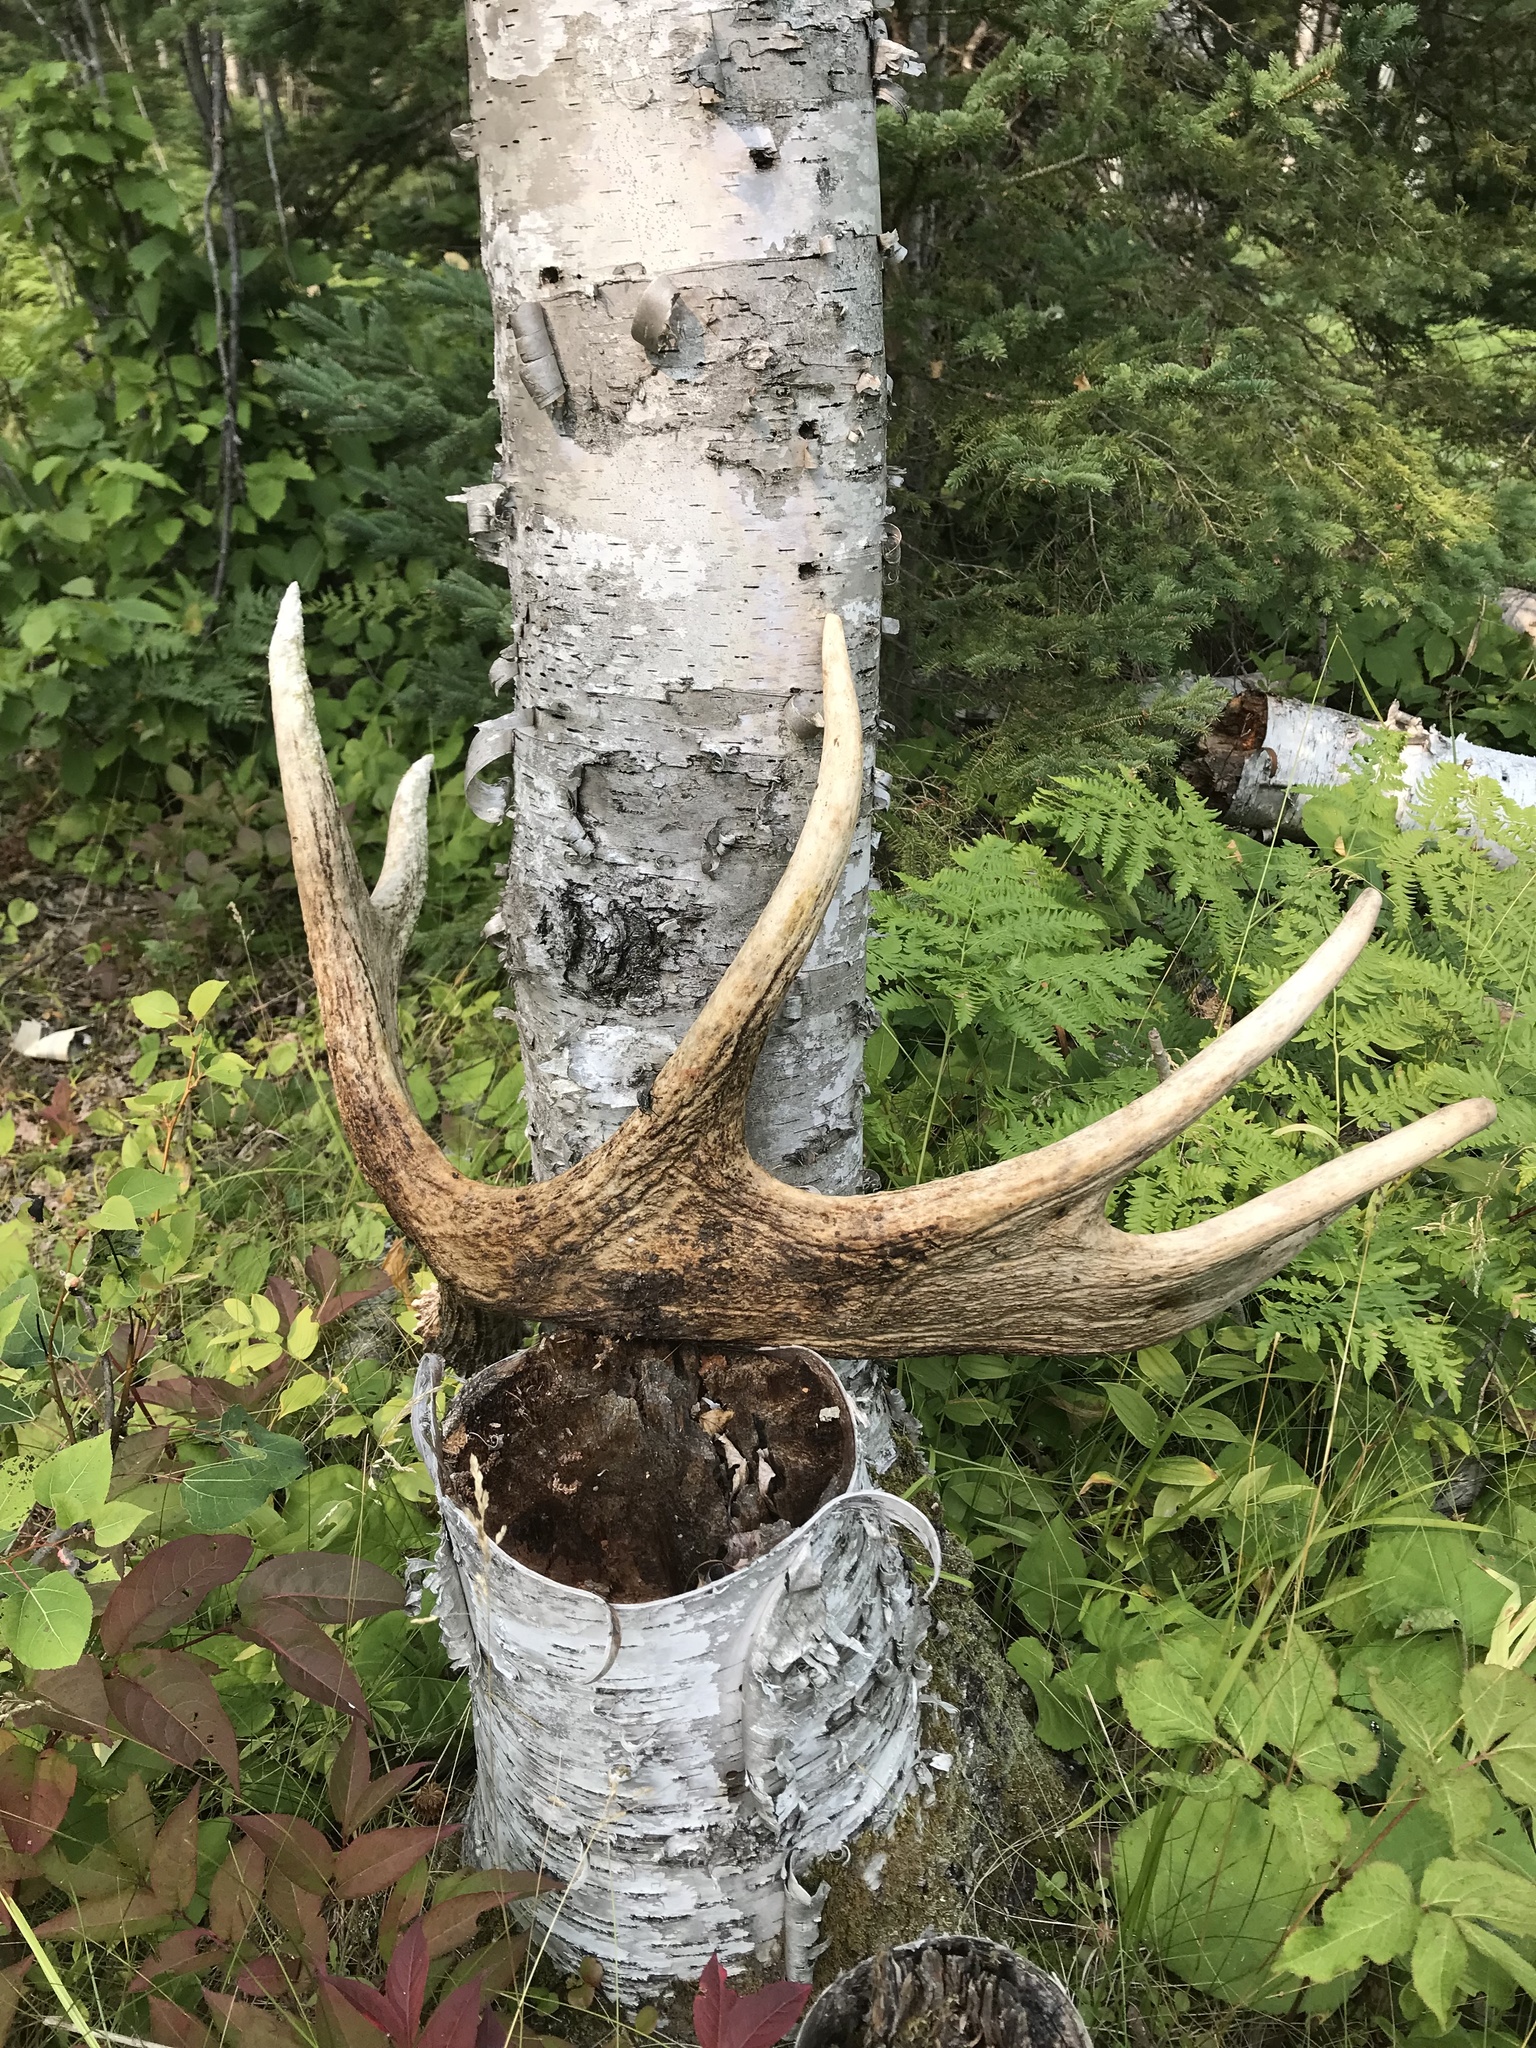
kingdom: Animalia
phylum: Chordata
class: Mammalia
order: Artiodactyla
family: Cervidae
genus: Alces
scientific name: Alces alces
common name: Moose
